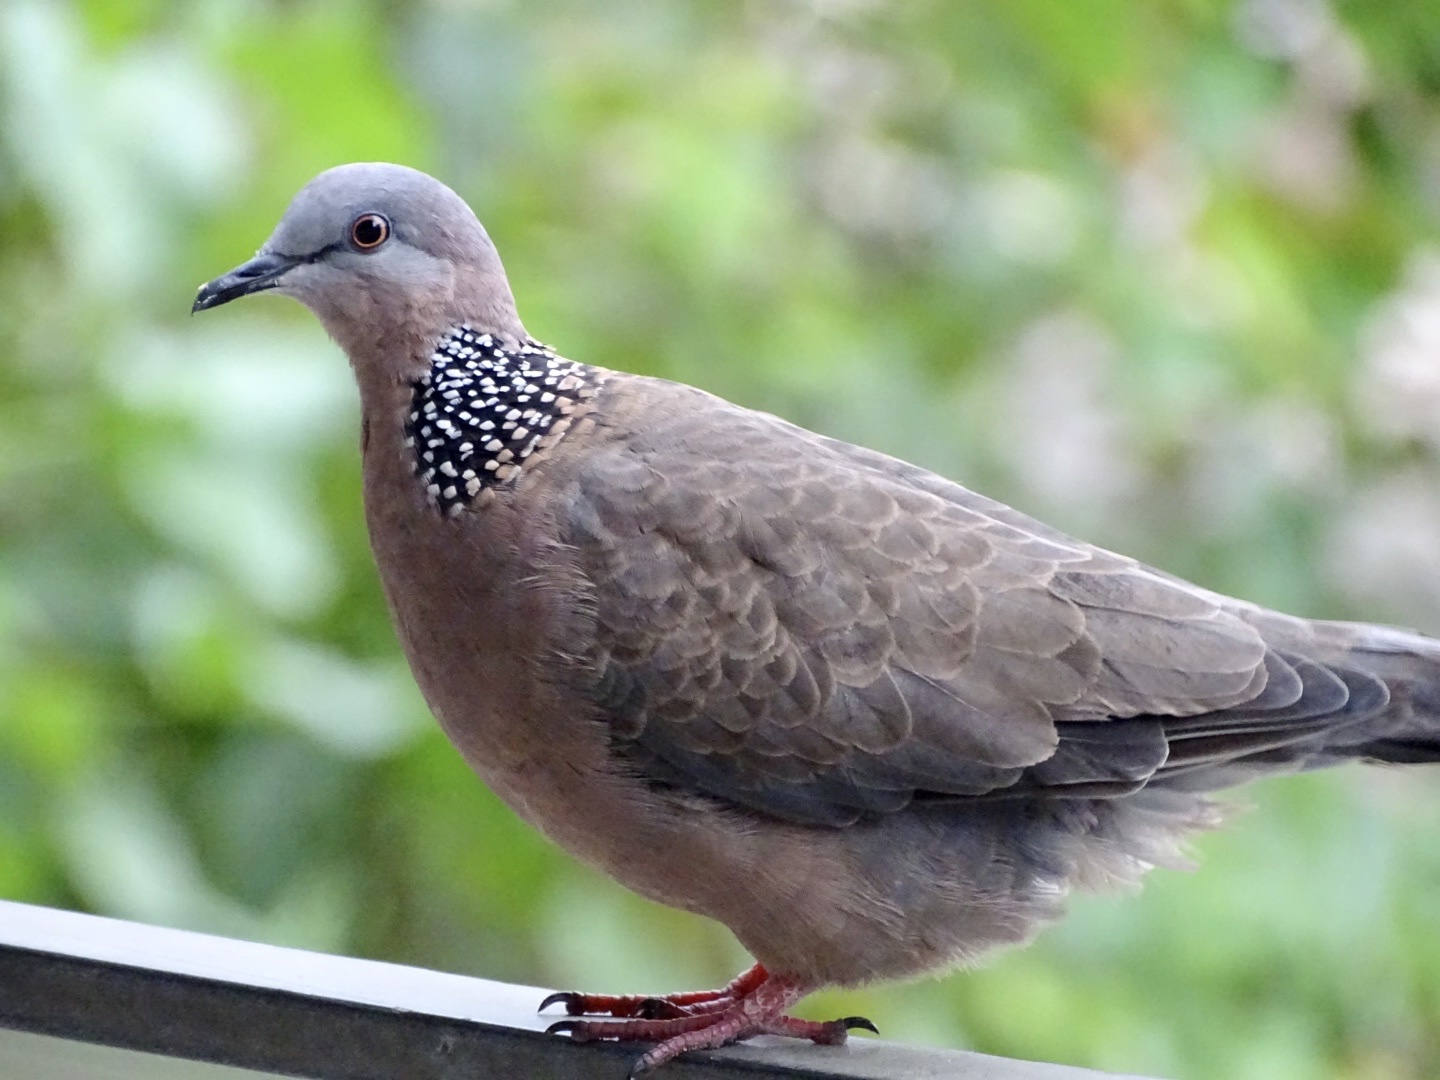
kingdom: Animalia
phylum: Chordata
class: Aves
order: Columbiformes
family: Columbidae
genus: Spilopelia
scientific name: Spilopelia chinensis
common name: Spotted dove
